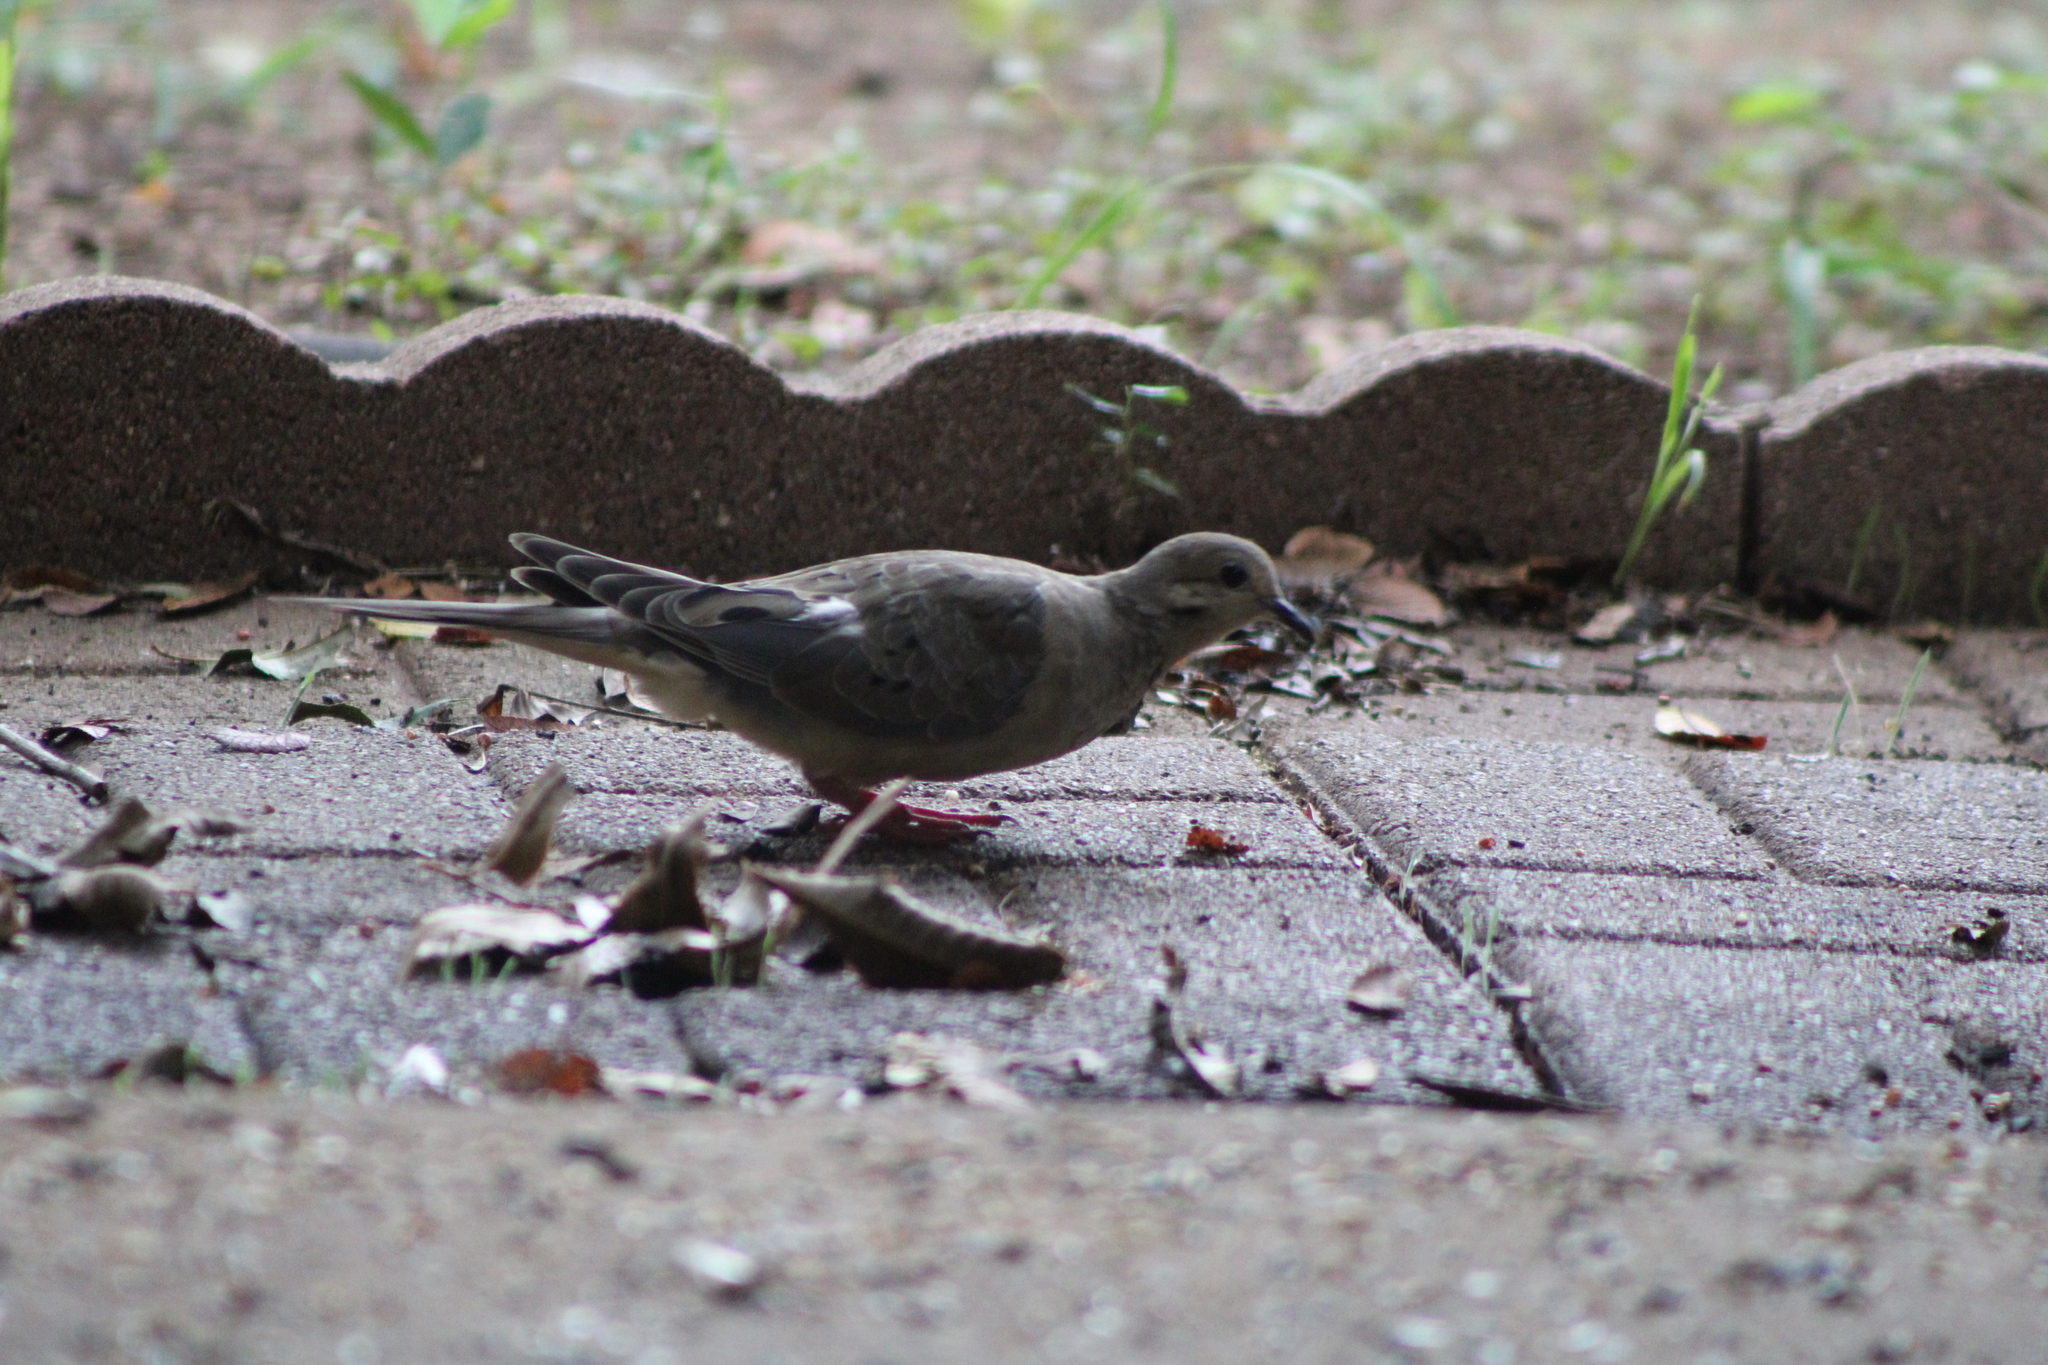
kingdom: Animalia
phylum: Chordata
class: Aves
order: Columbiformes
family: Columbidae
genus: Zenaida
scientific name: Zenaida macroura
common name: Mourning dove
